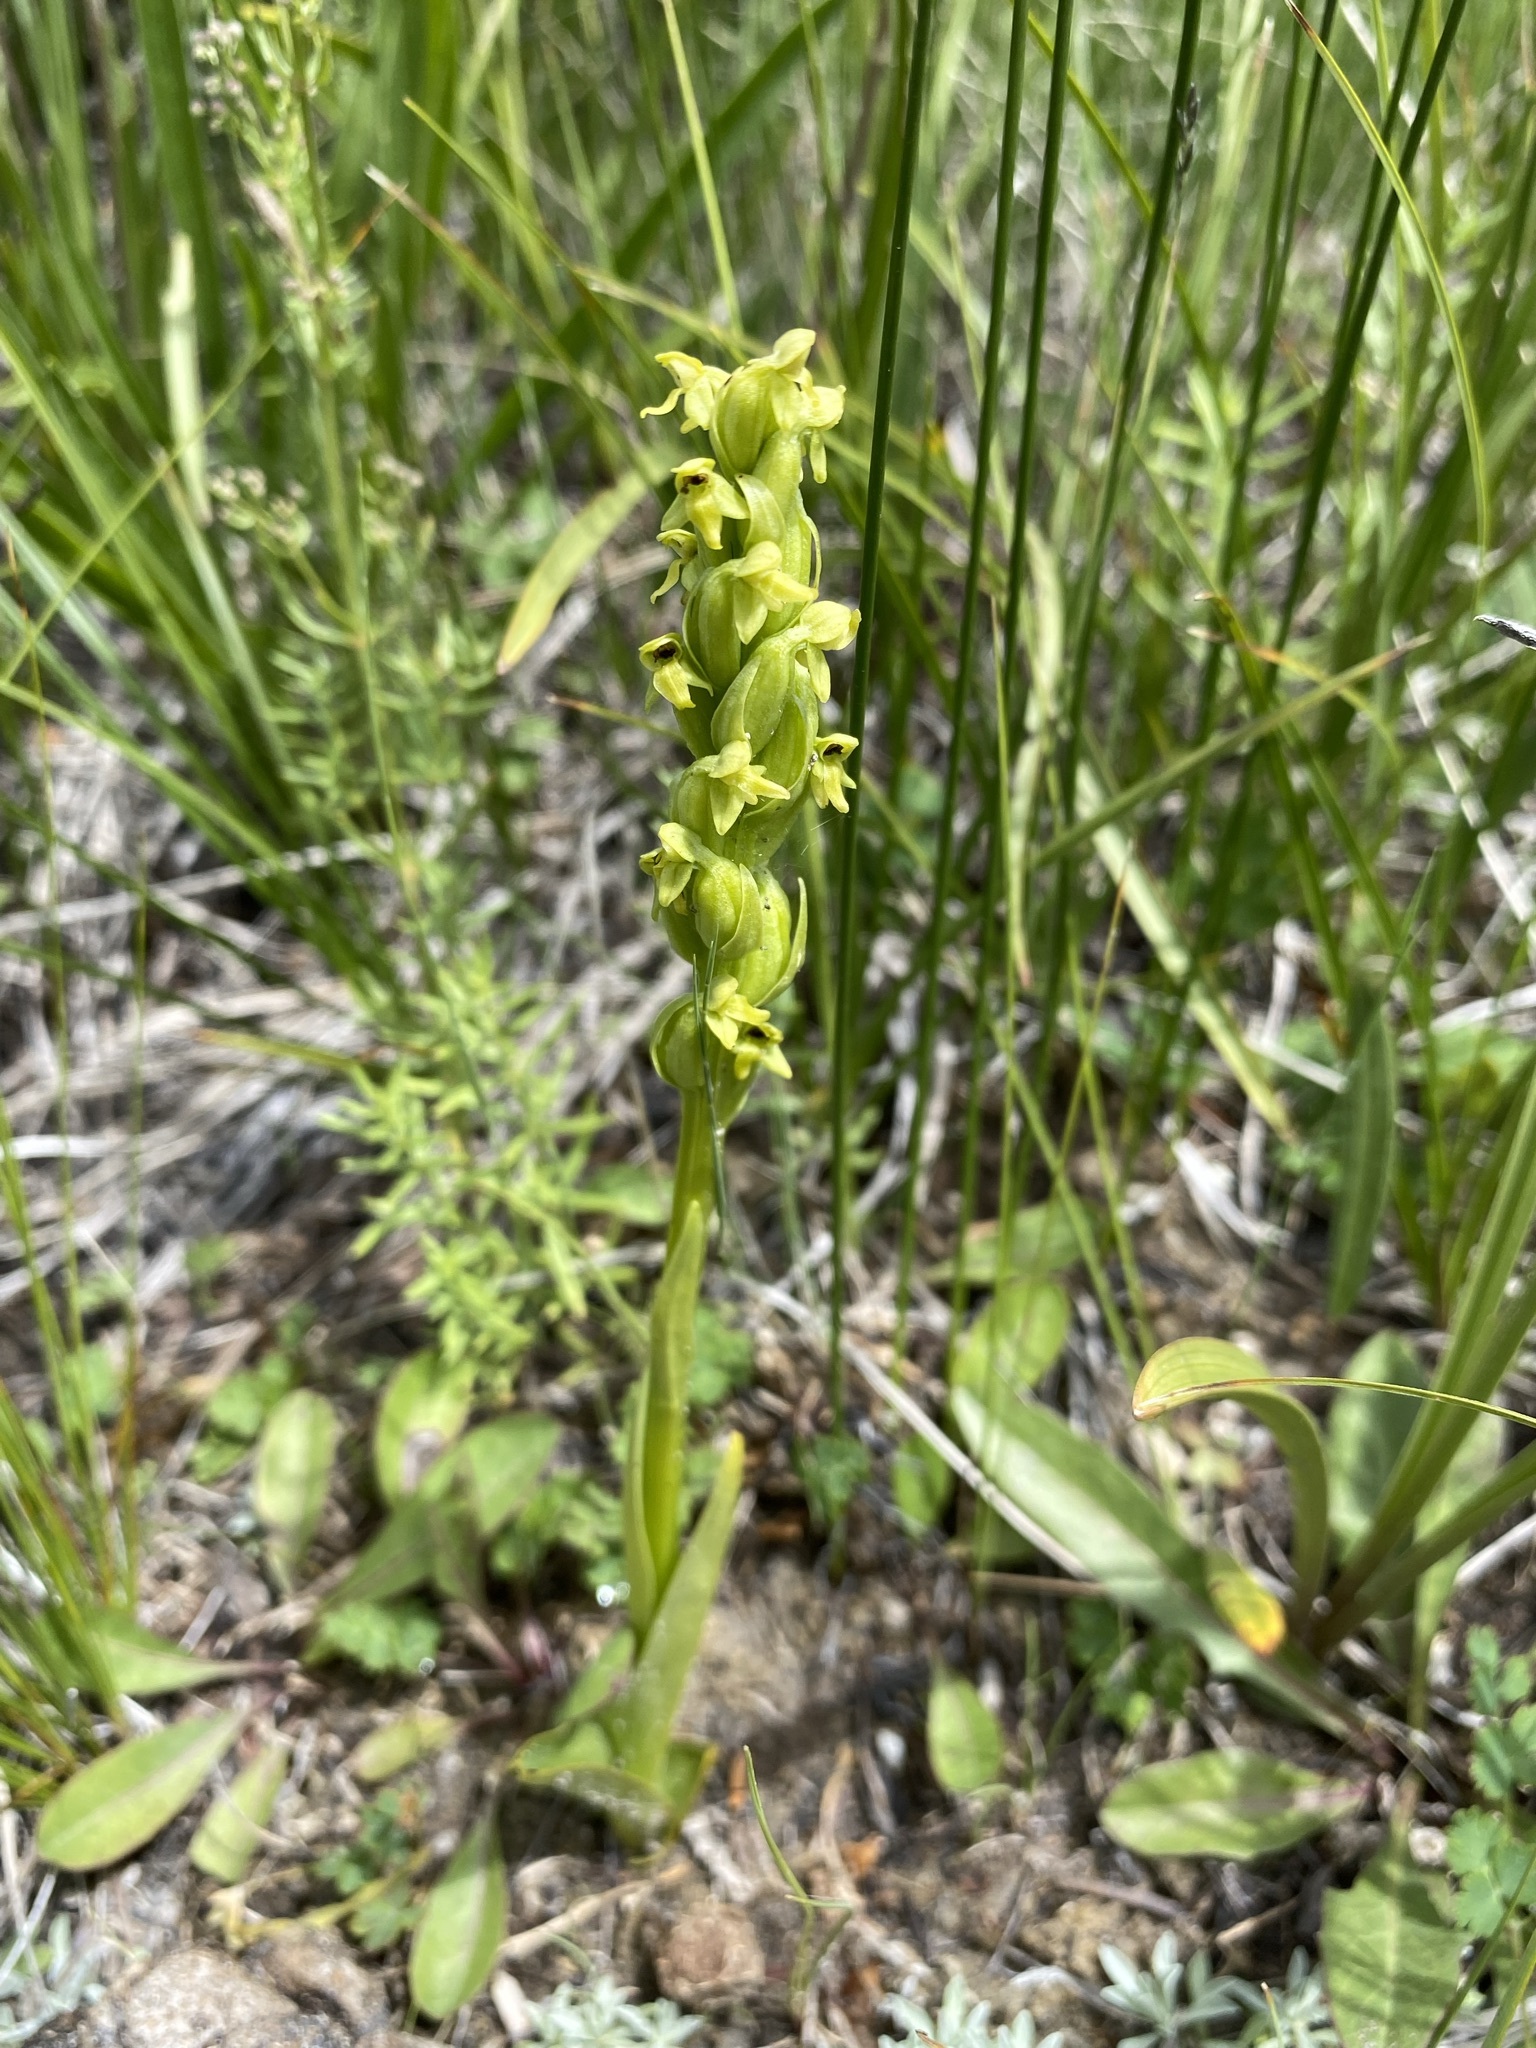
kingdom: Plantae
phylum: Tracheophyta
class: Liliopsida
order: Asparagales
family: Orchidaceae
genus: Platanthera
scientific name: Platanthera aquilonis
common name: Northern green orchid
